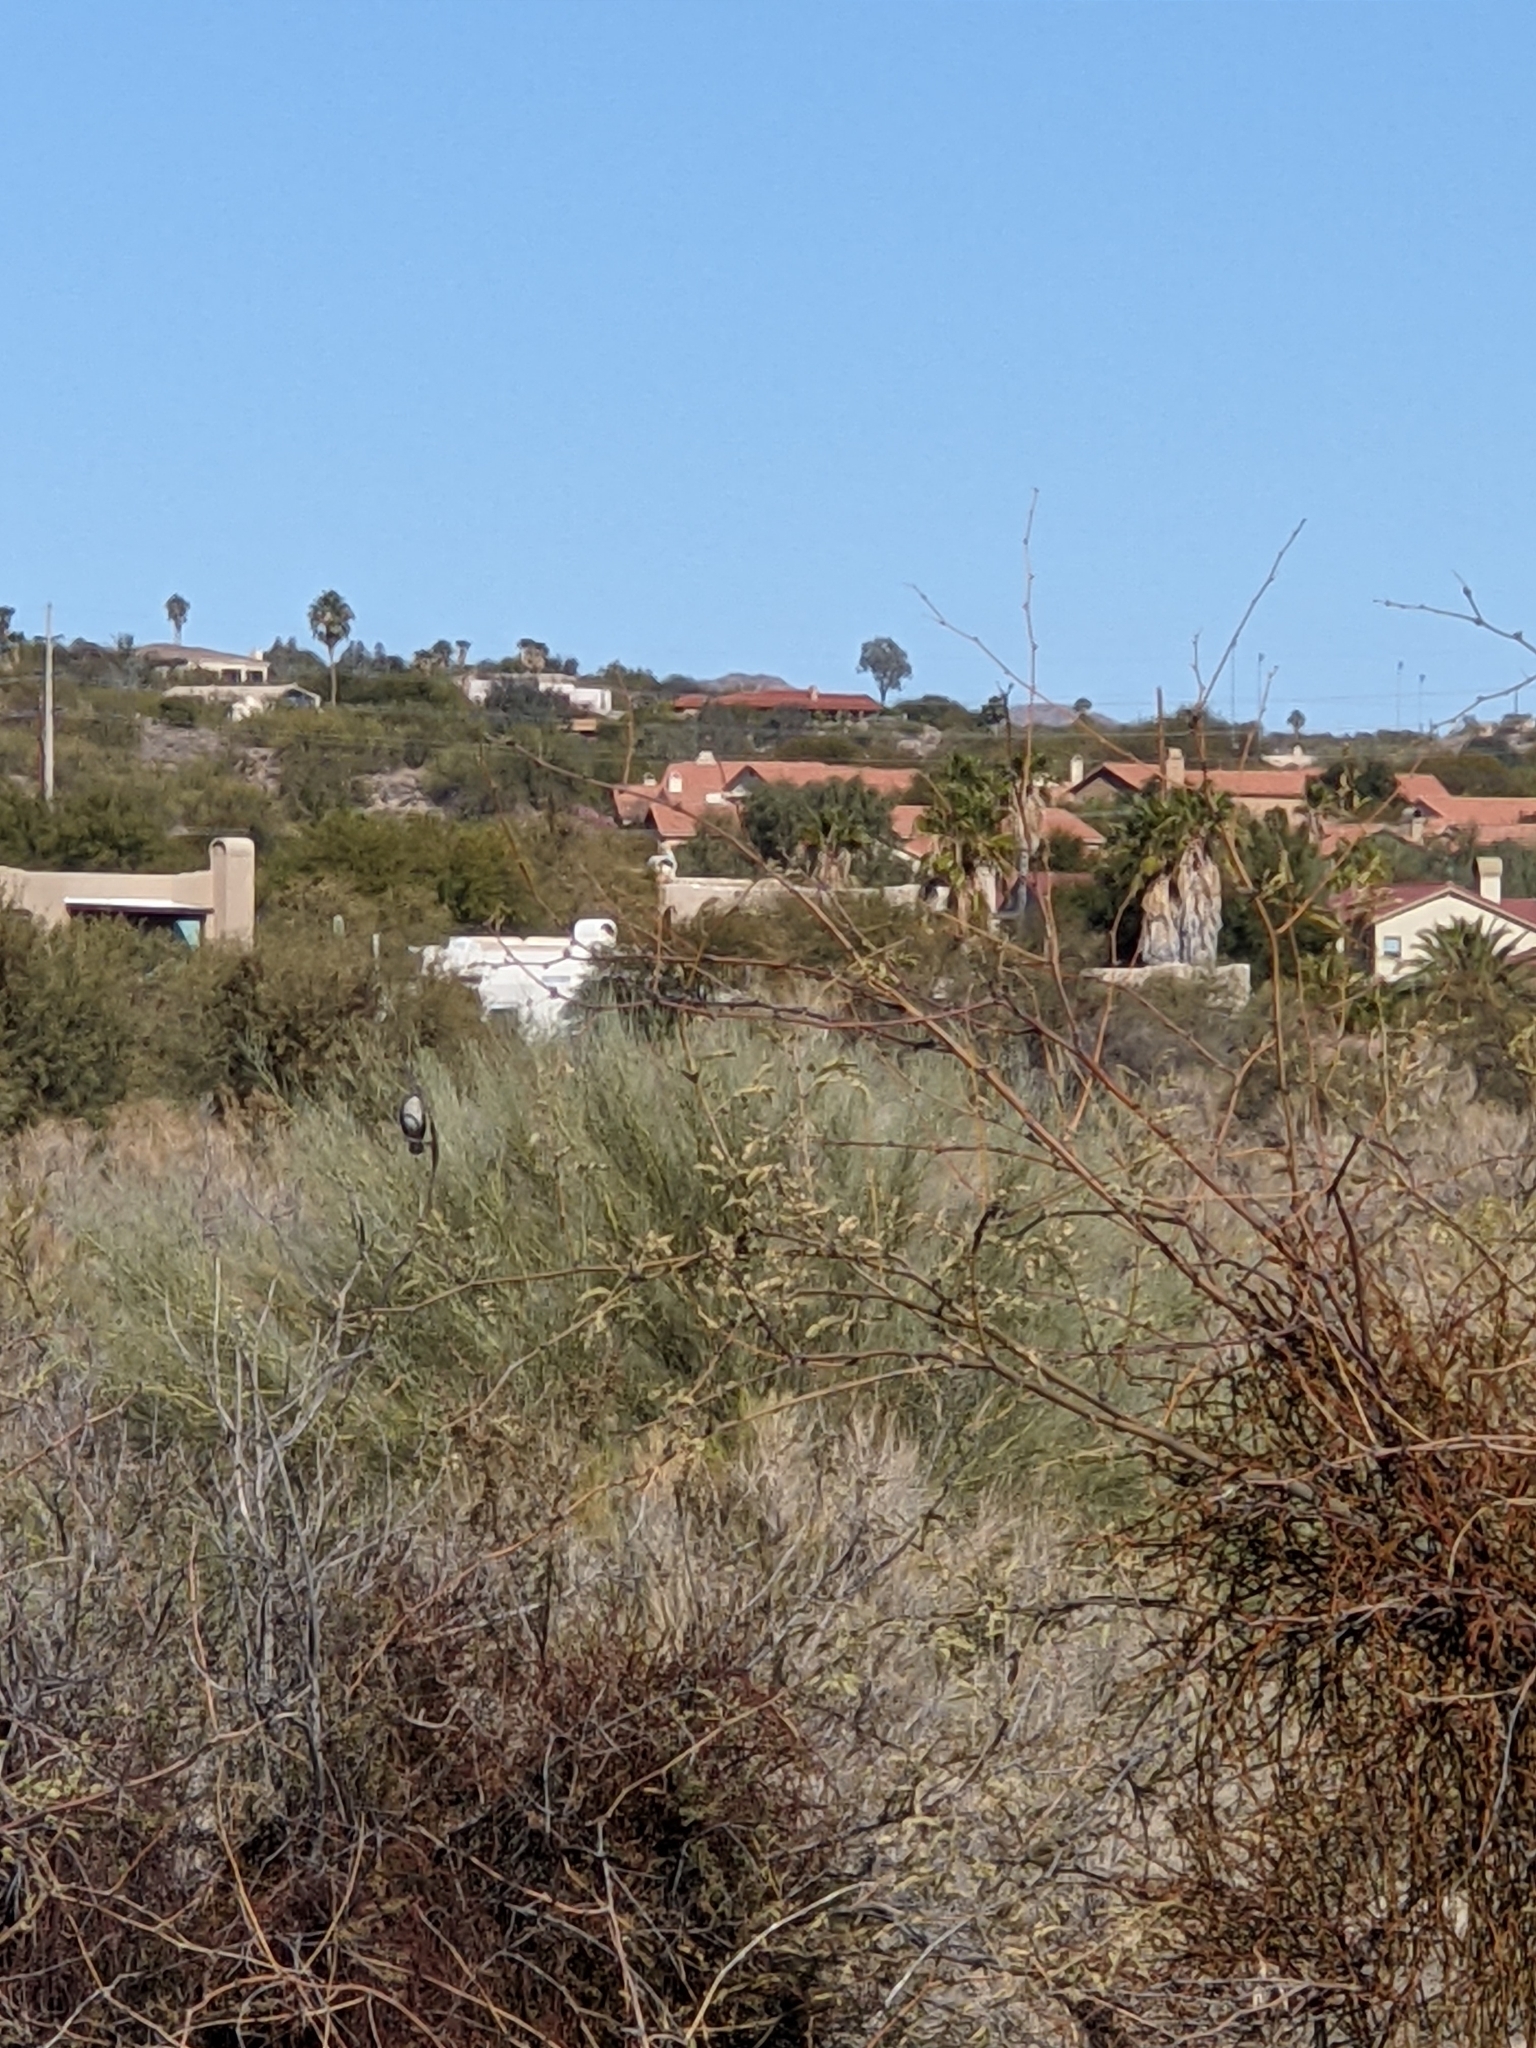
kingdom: Animalia
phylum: Chordata
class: Aves
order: Passeriformes
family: Ptilogonatidae
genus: Phainopepla
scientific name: Phainopepla nitens
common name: Phainopepla
